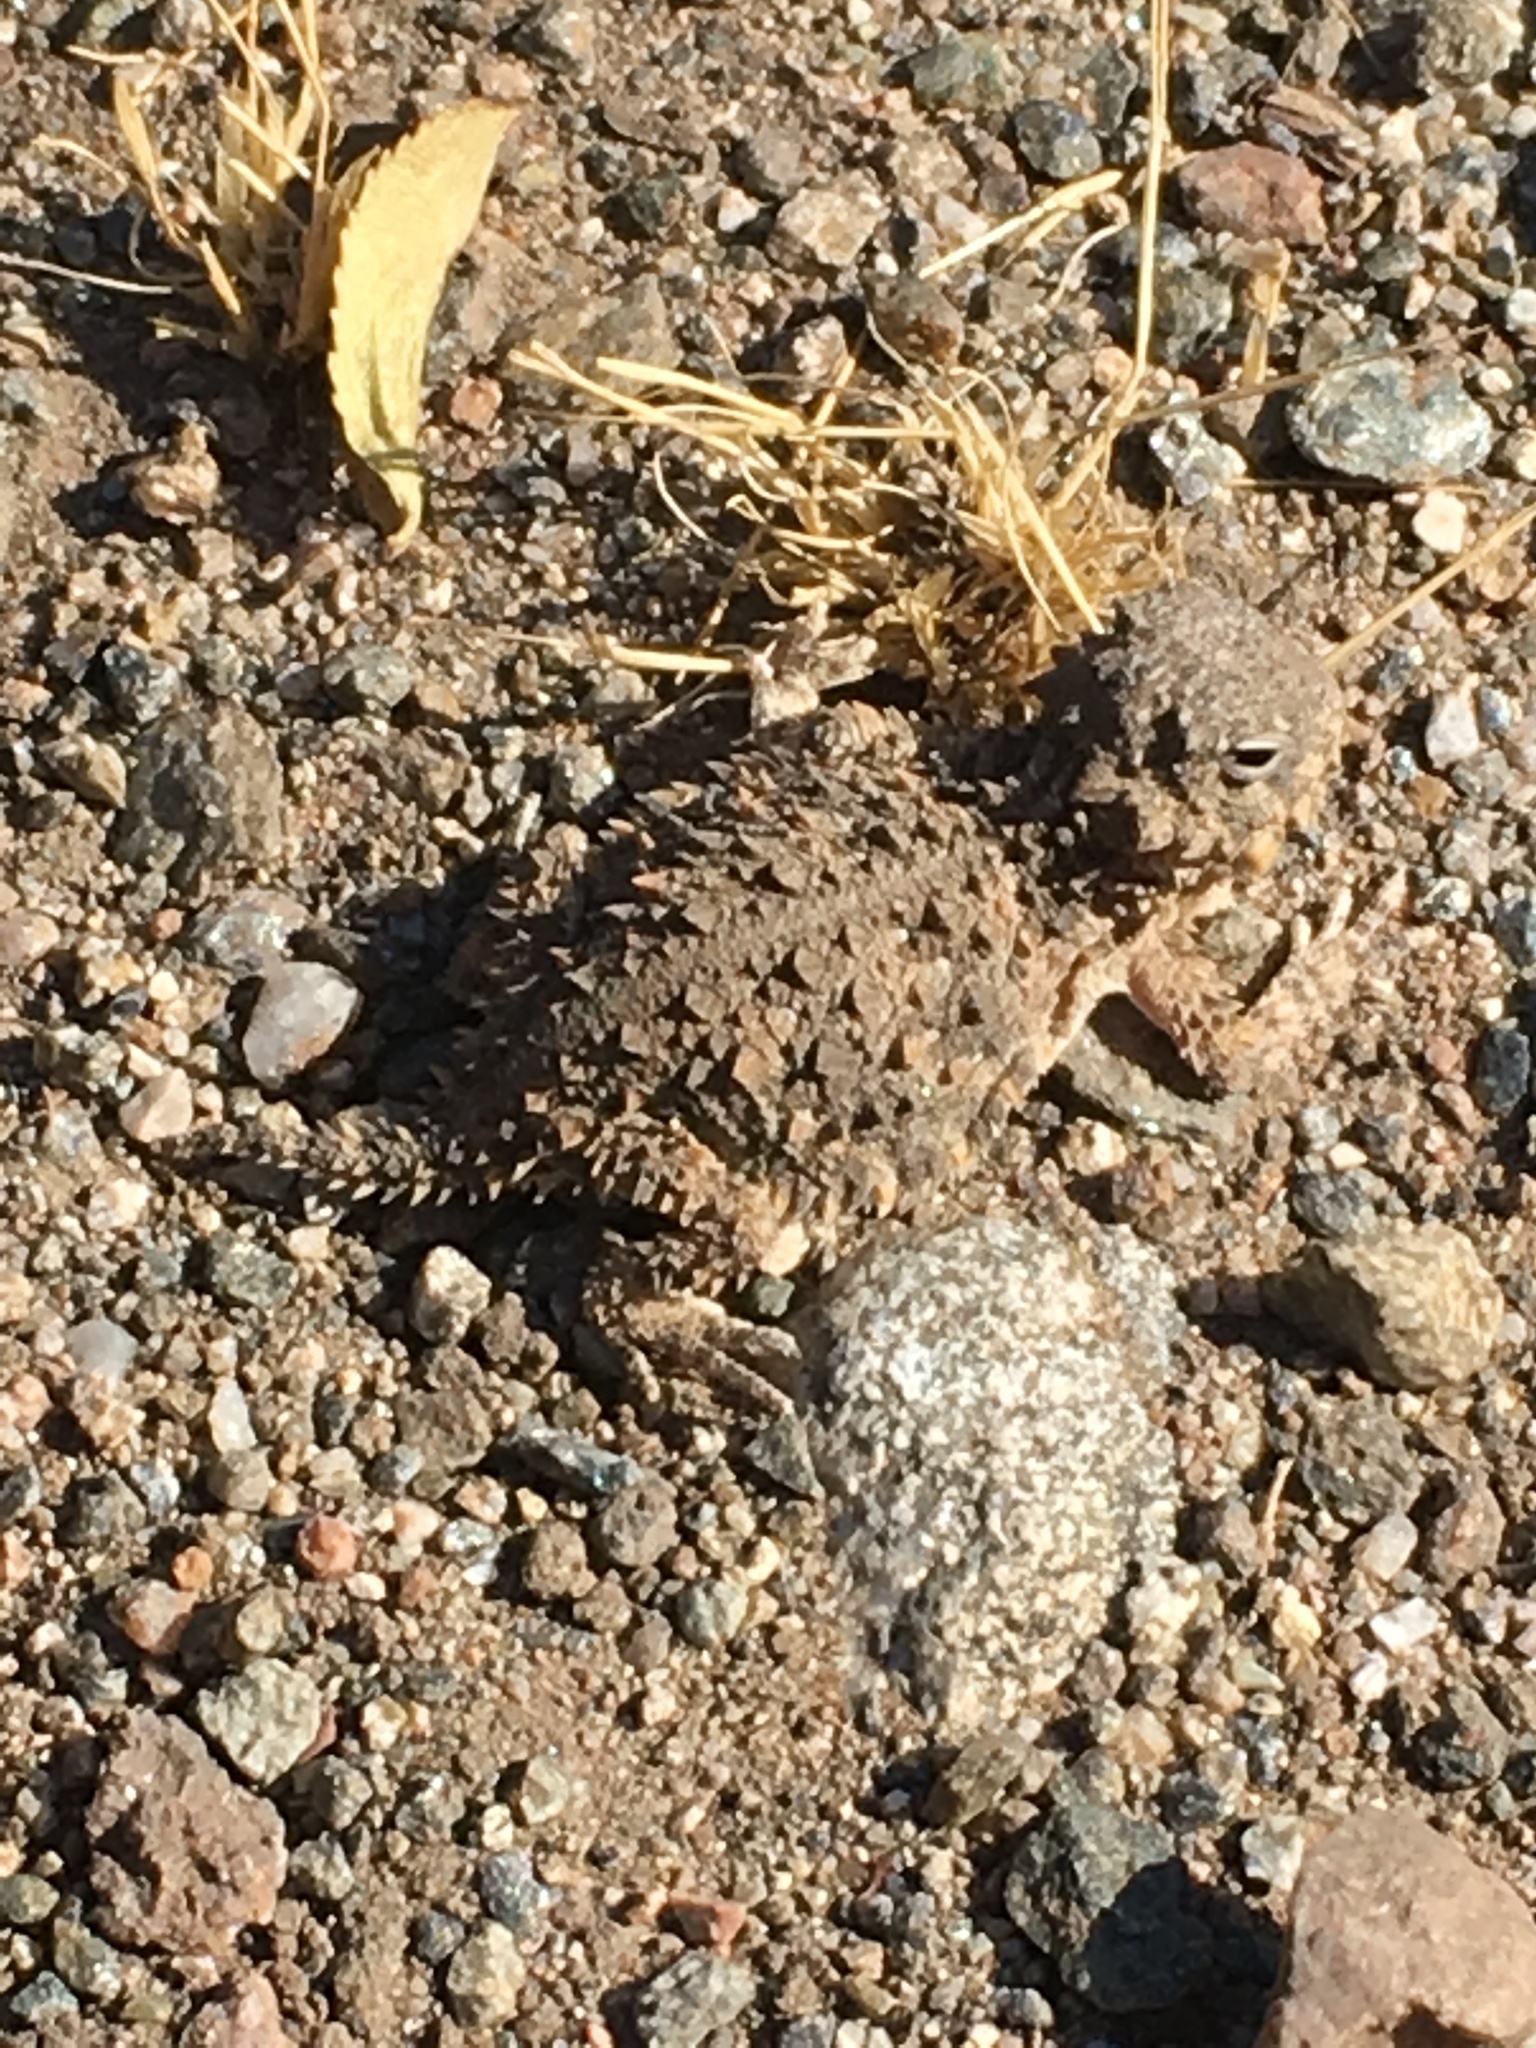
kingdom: Animalia
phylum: Chordata
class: Squamata
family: Phrynosomatidae
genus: Phrynosoma
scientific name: Phrynosoma blainvillii
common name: San diego horned lizard
